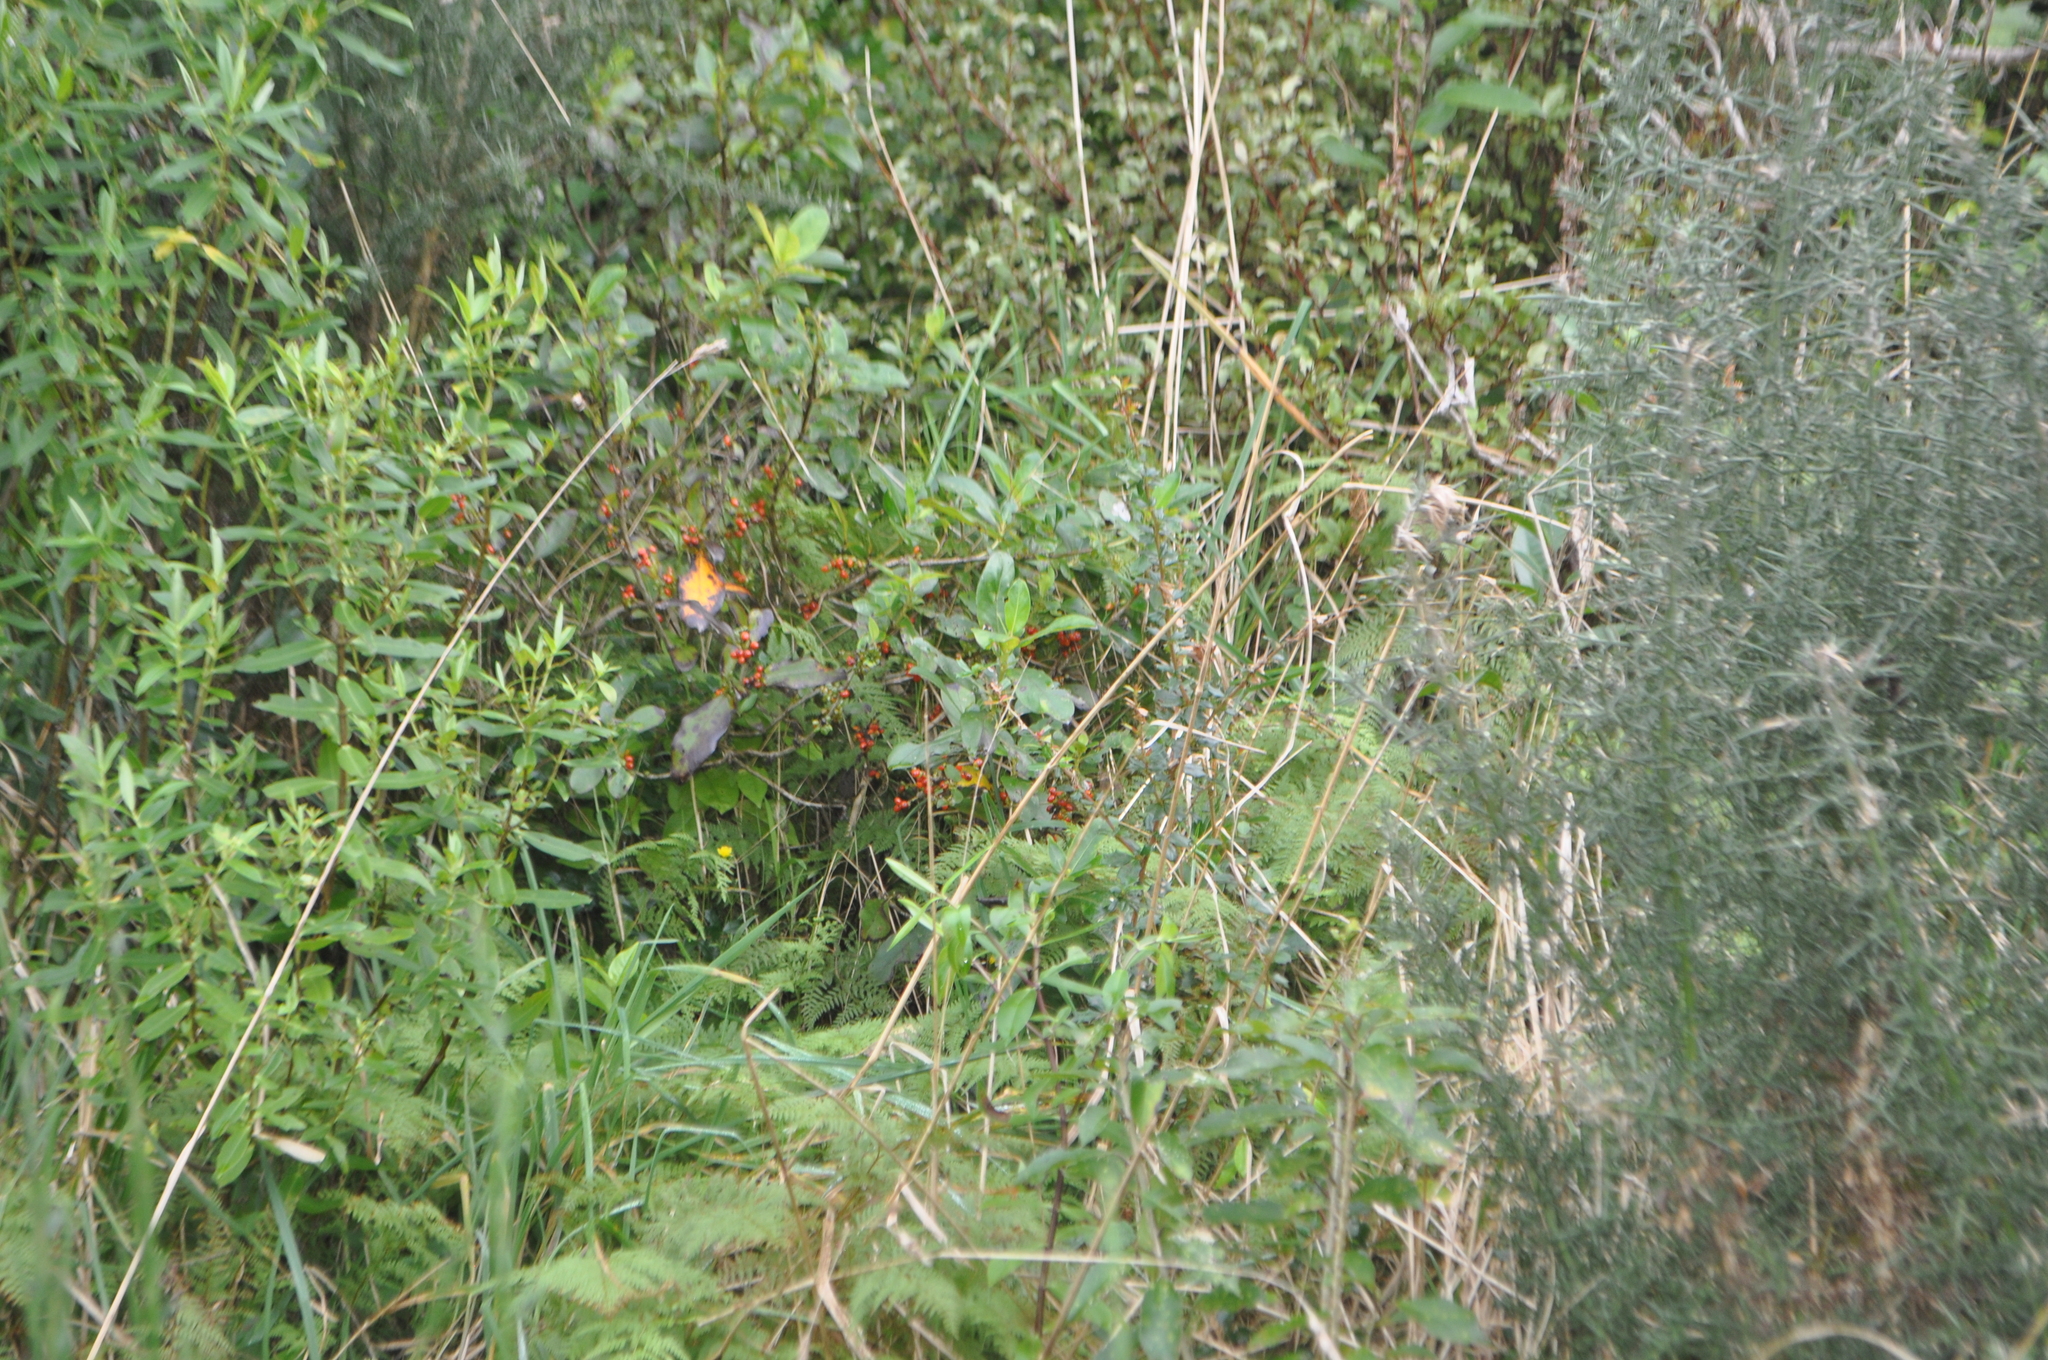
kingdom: Plantae
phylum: Tracheophyta
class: Magnoliopsida
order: Gentianales
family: Rubiaceae
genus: Coprosma
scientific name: Coprosma robusta
